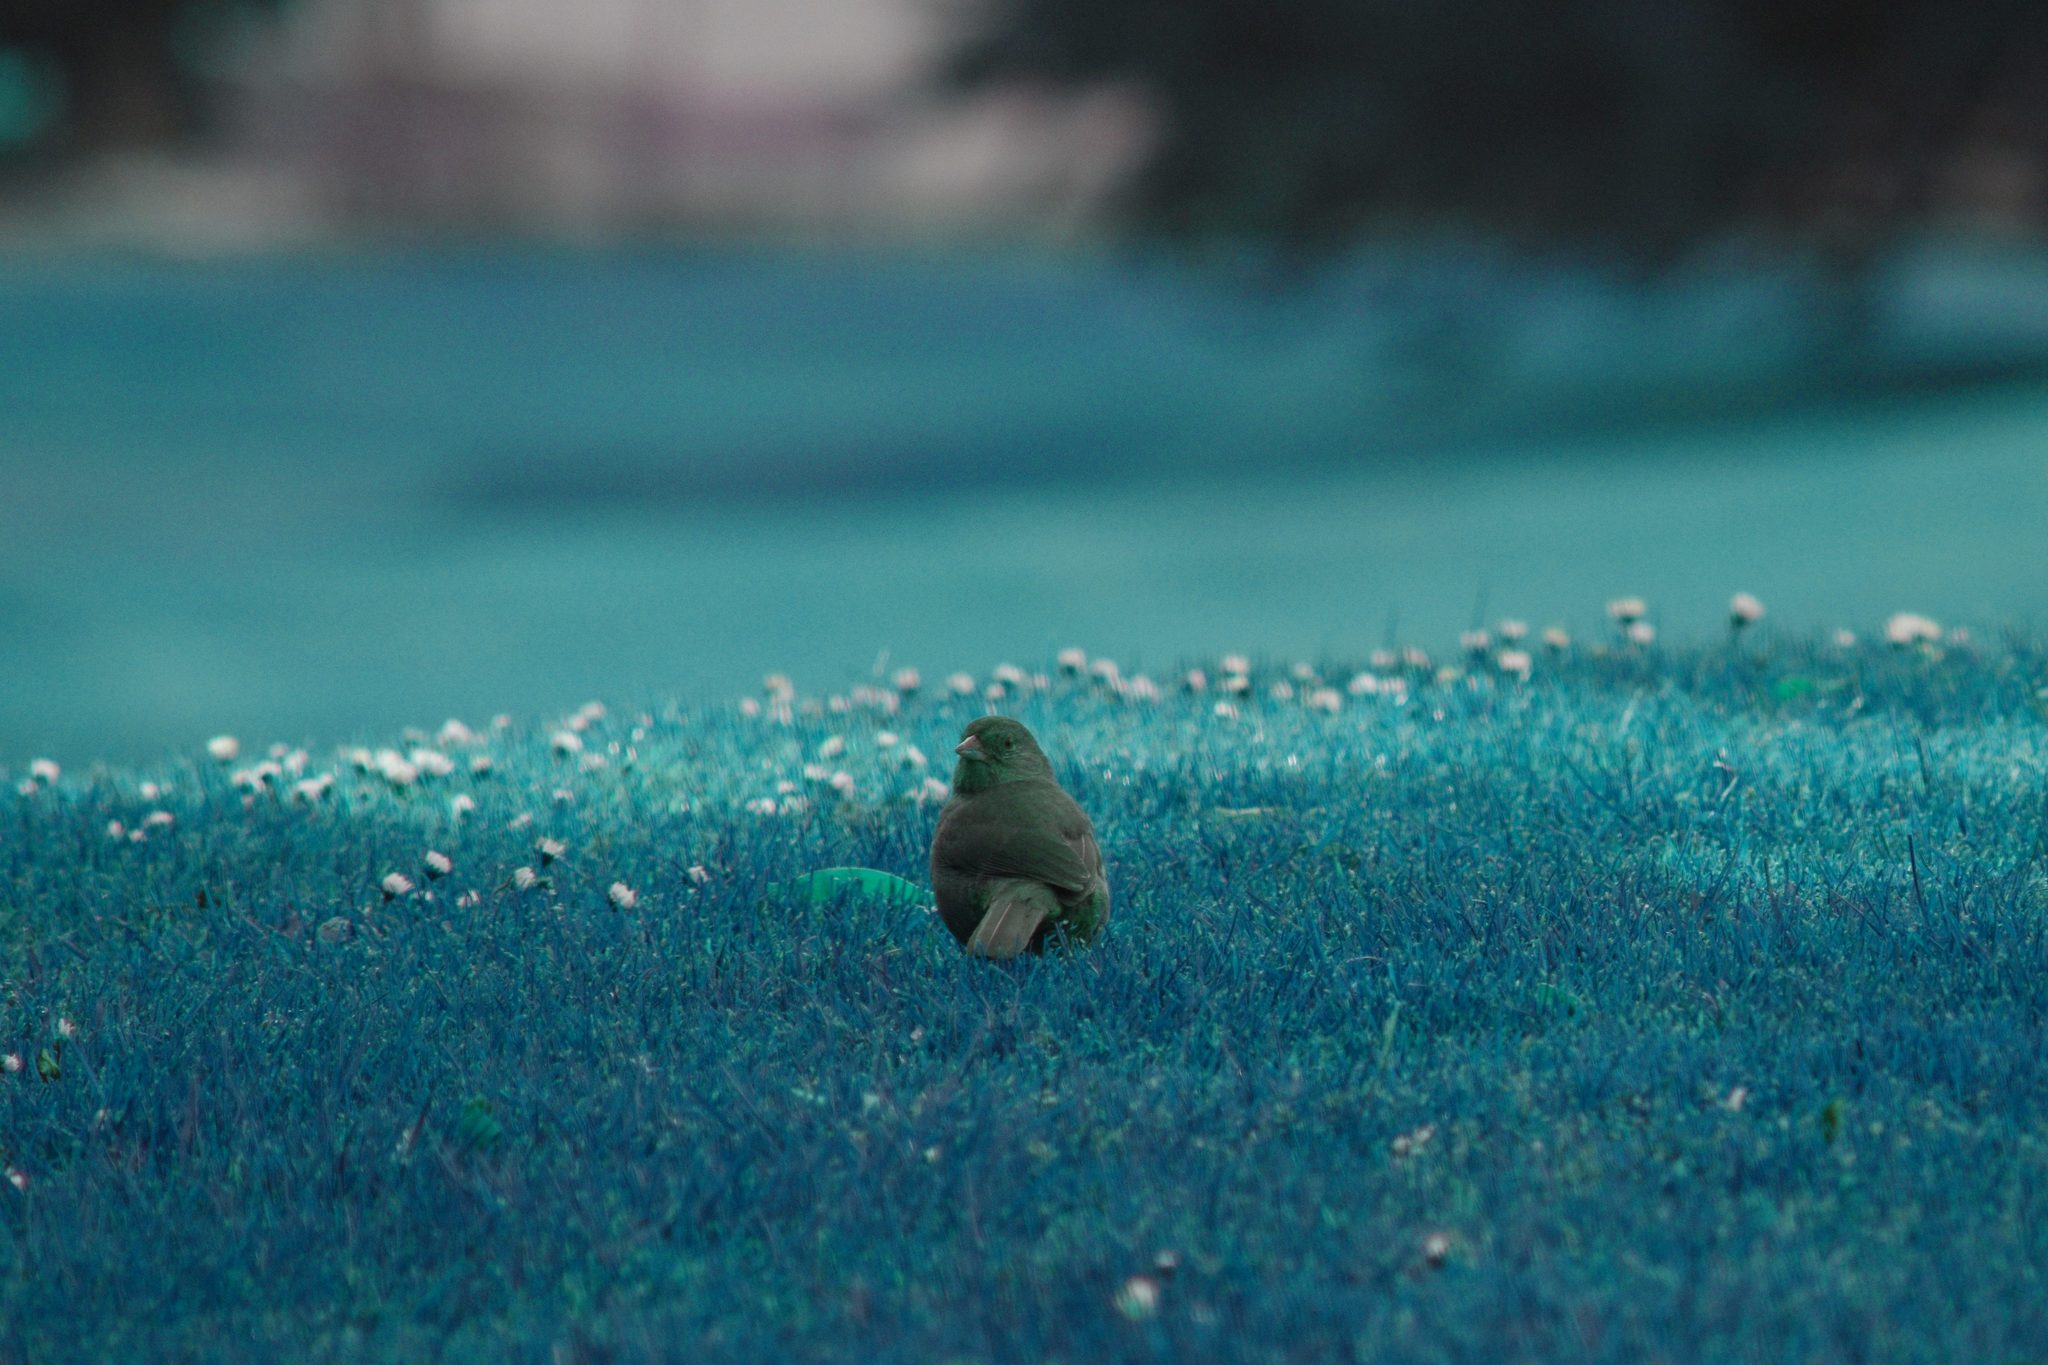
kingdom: Animalia
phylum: Chordata
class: Aves
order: Passeriformes
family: Passerellidae
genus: Melozone
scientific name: Melozone crissalis
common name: California towhee
